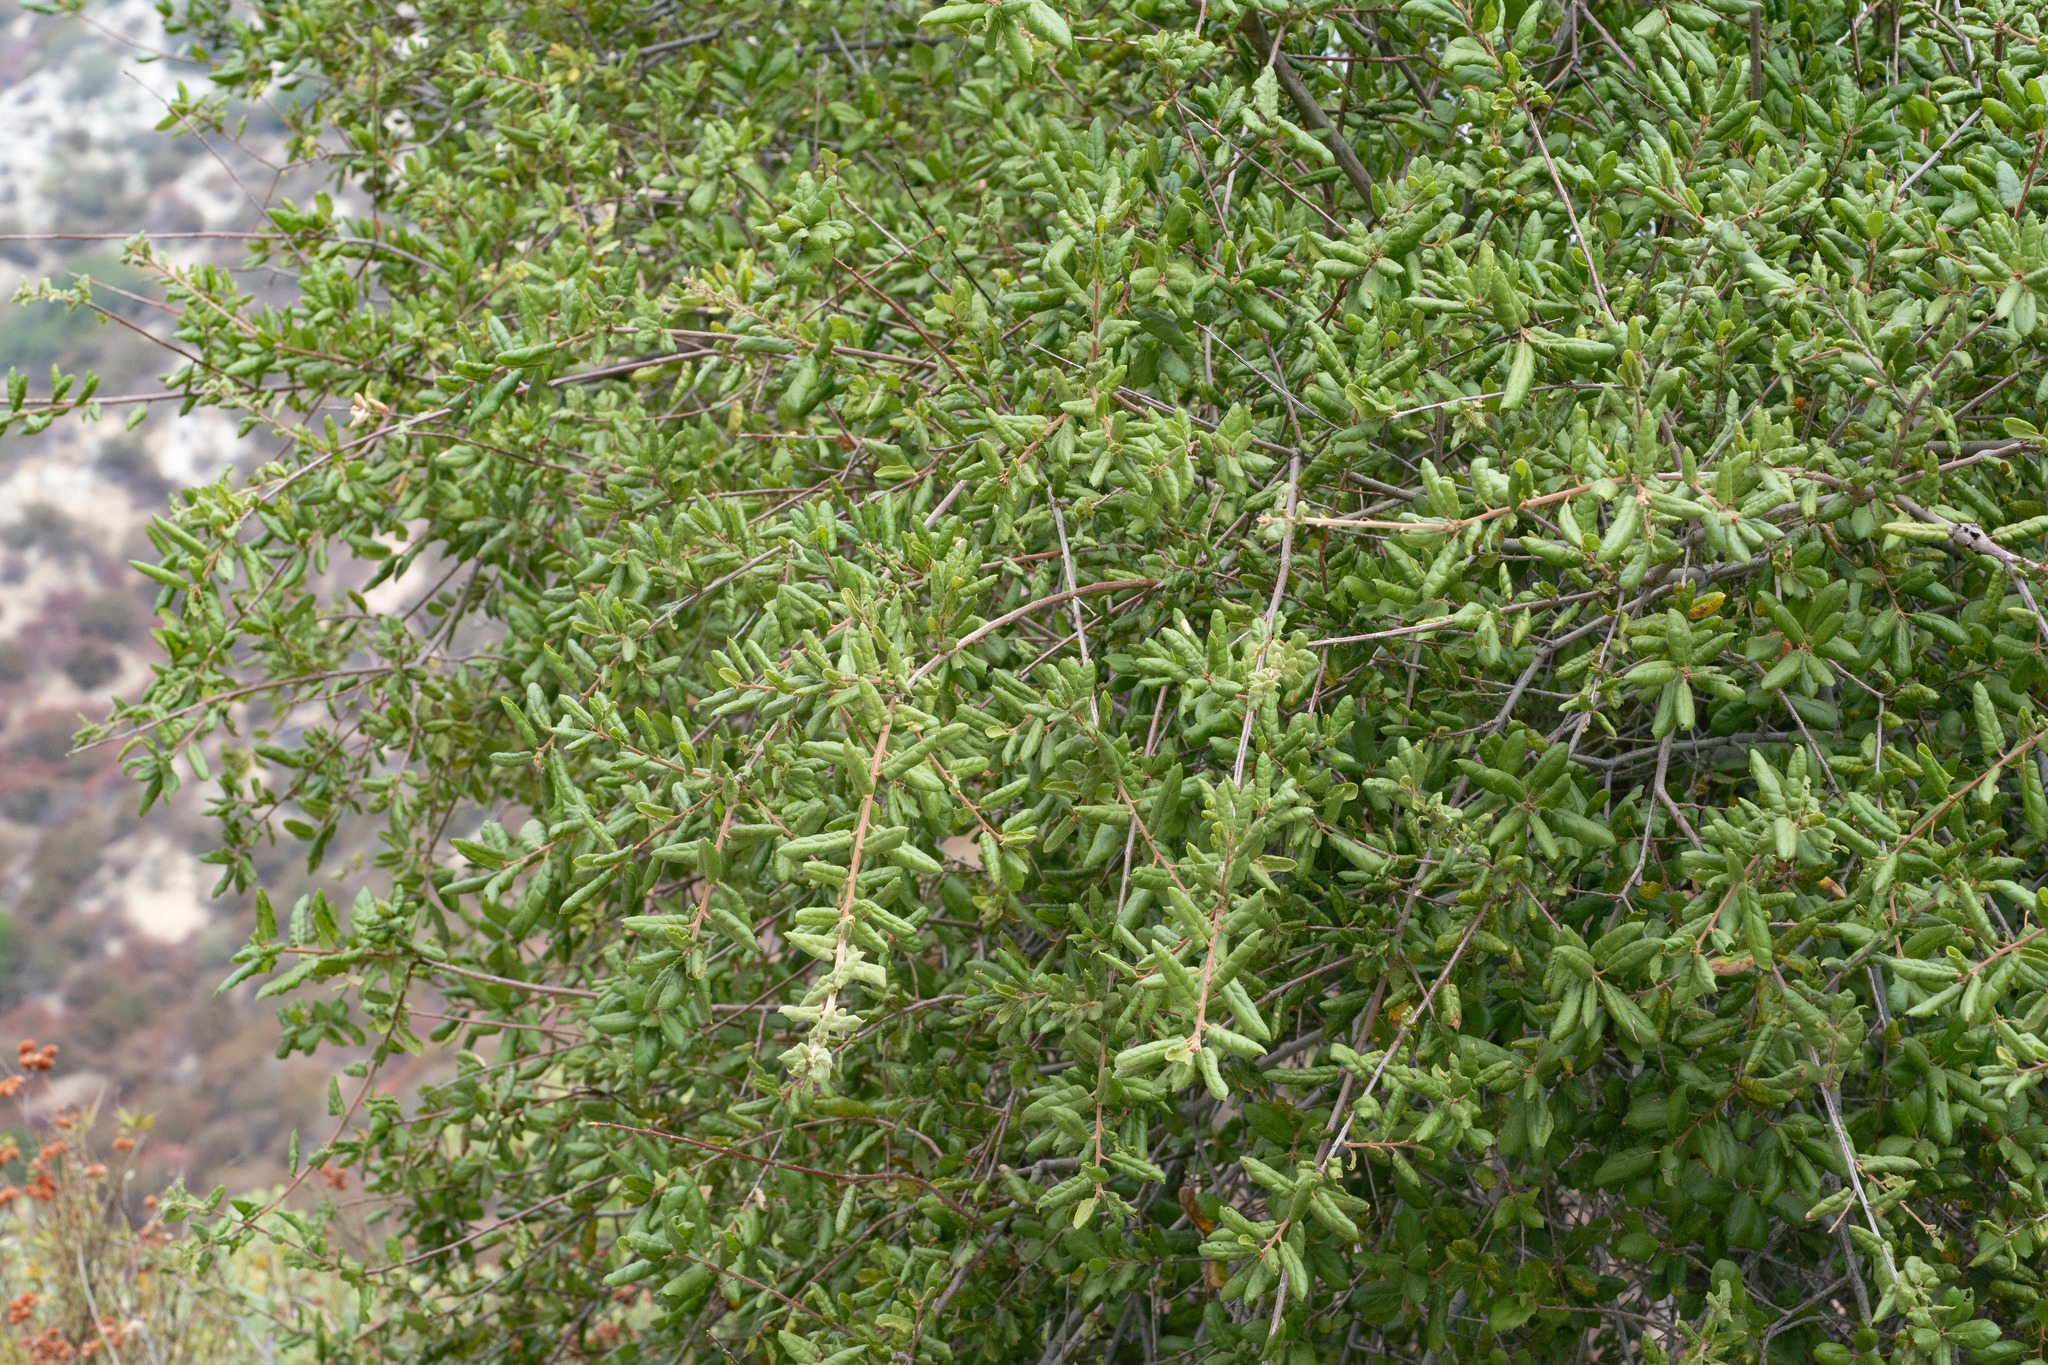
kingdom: Plantae
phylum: Tracheophyta
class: Magnoliopsida
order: Fagales
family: Fagaceae
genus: Quercus
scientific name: Quercus agrifolia
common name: California live oak
